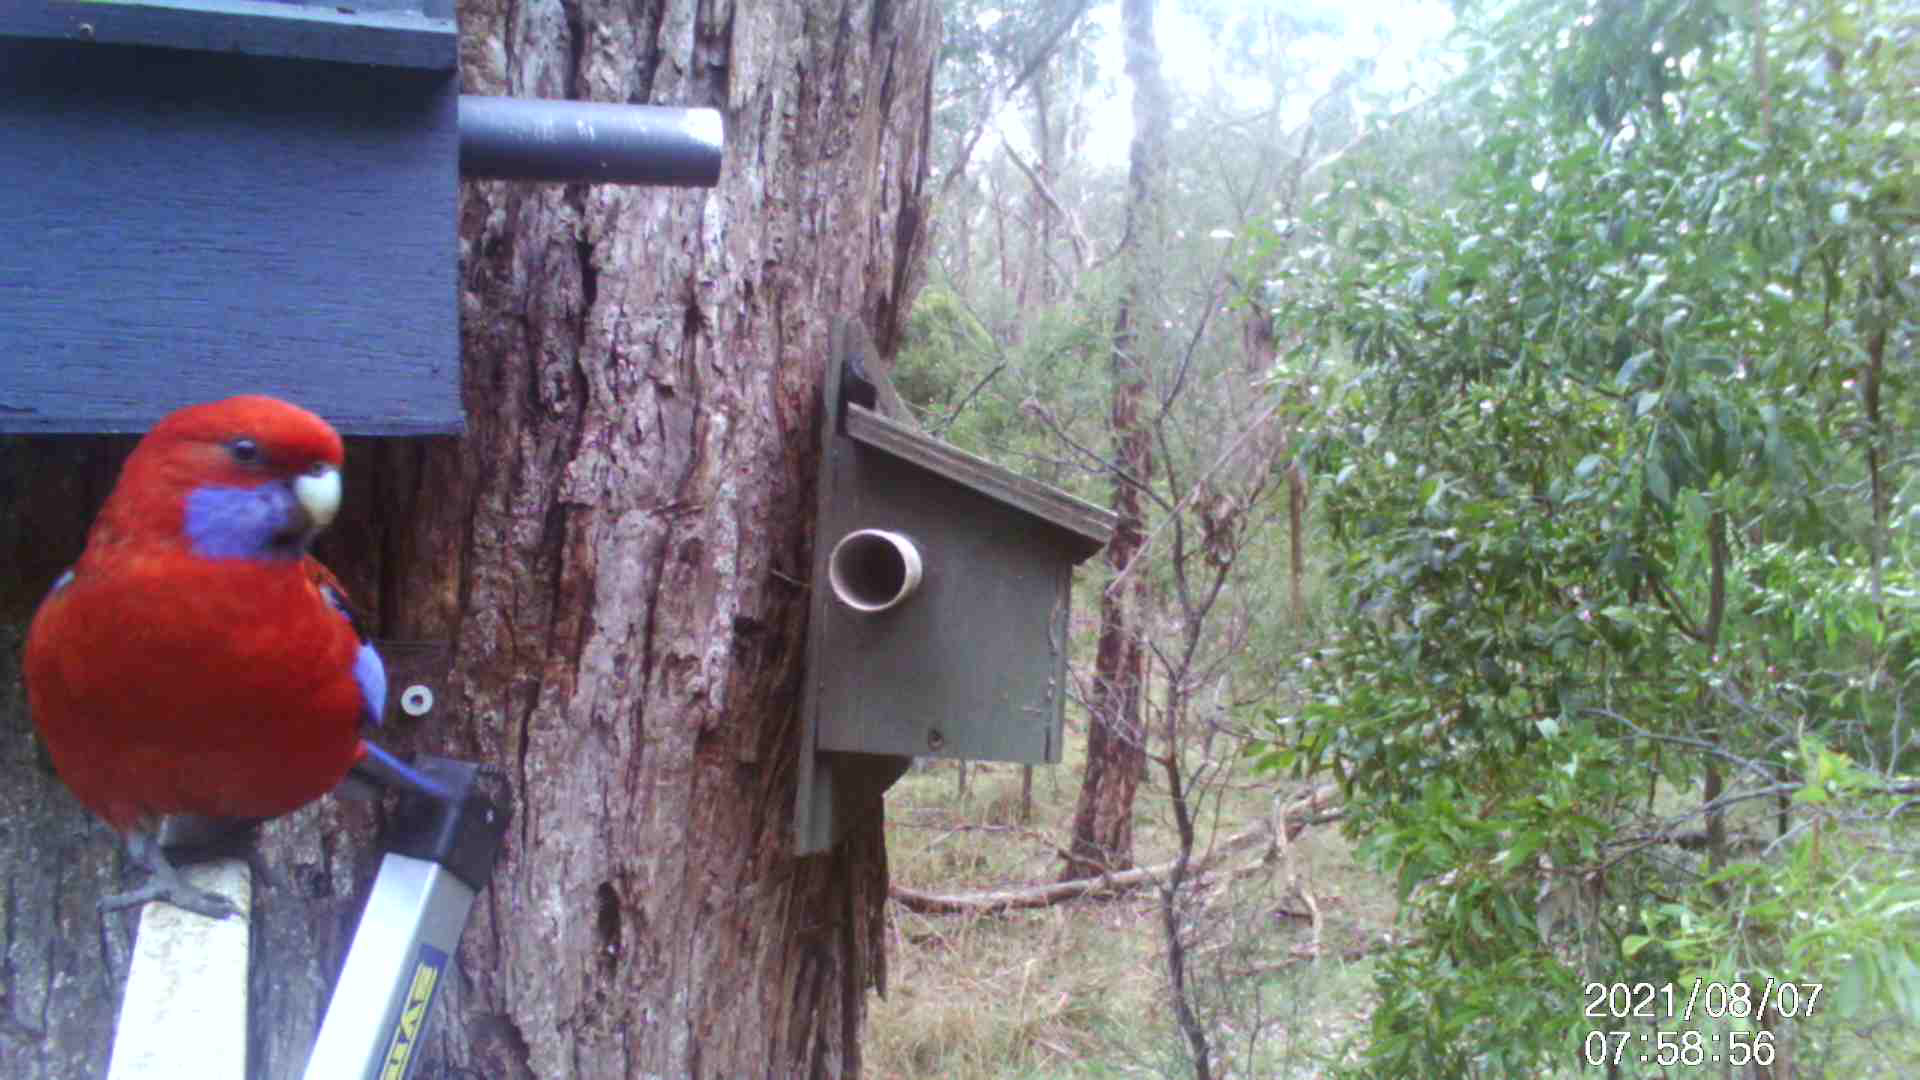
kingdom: Animalia
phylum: Chordata
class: Aves
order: Psittaciformes
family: Psittacidae
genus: Platycercus
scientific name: Platycercus elegans
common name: Crimson rosella
